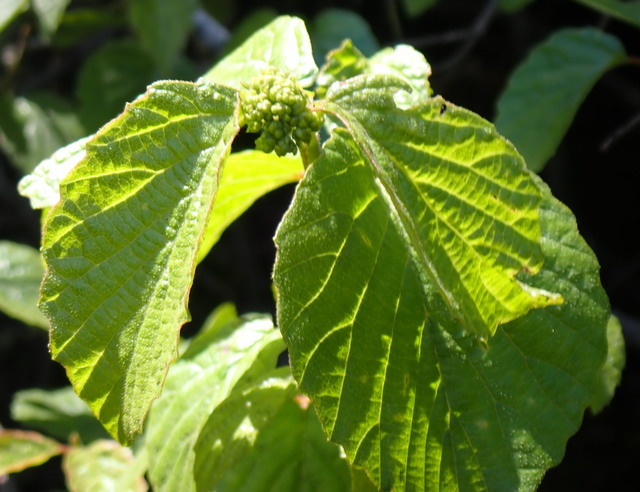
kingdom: Plantae
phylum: Tracheophyta
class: Magnoliopsida
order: Dipsacales
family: Viburnaceae
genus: Viburnum
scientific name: Viburnum scabrellum
